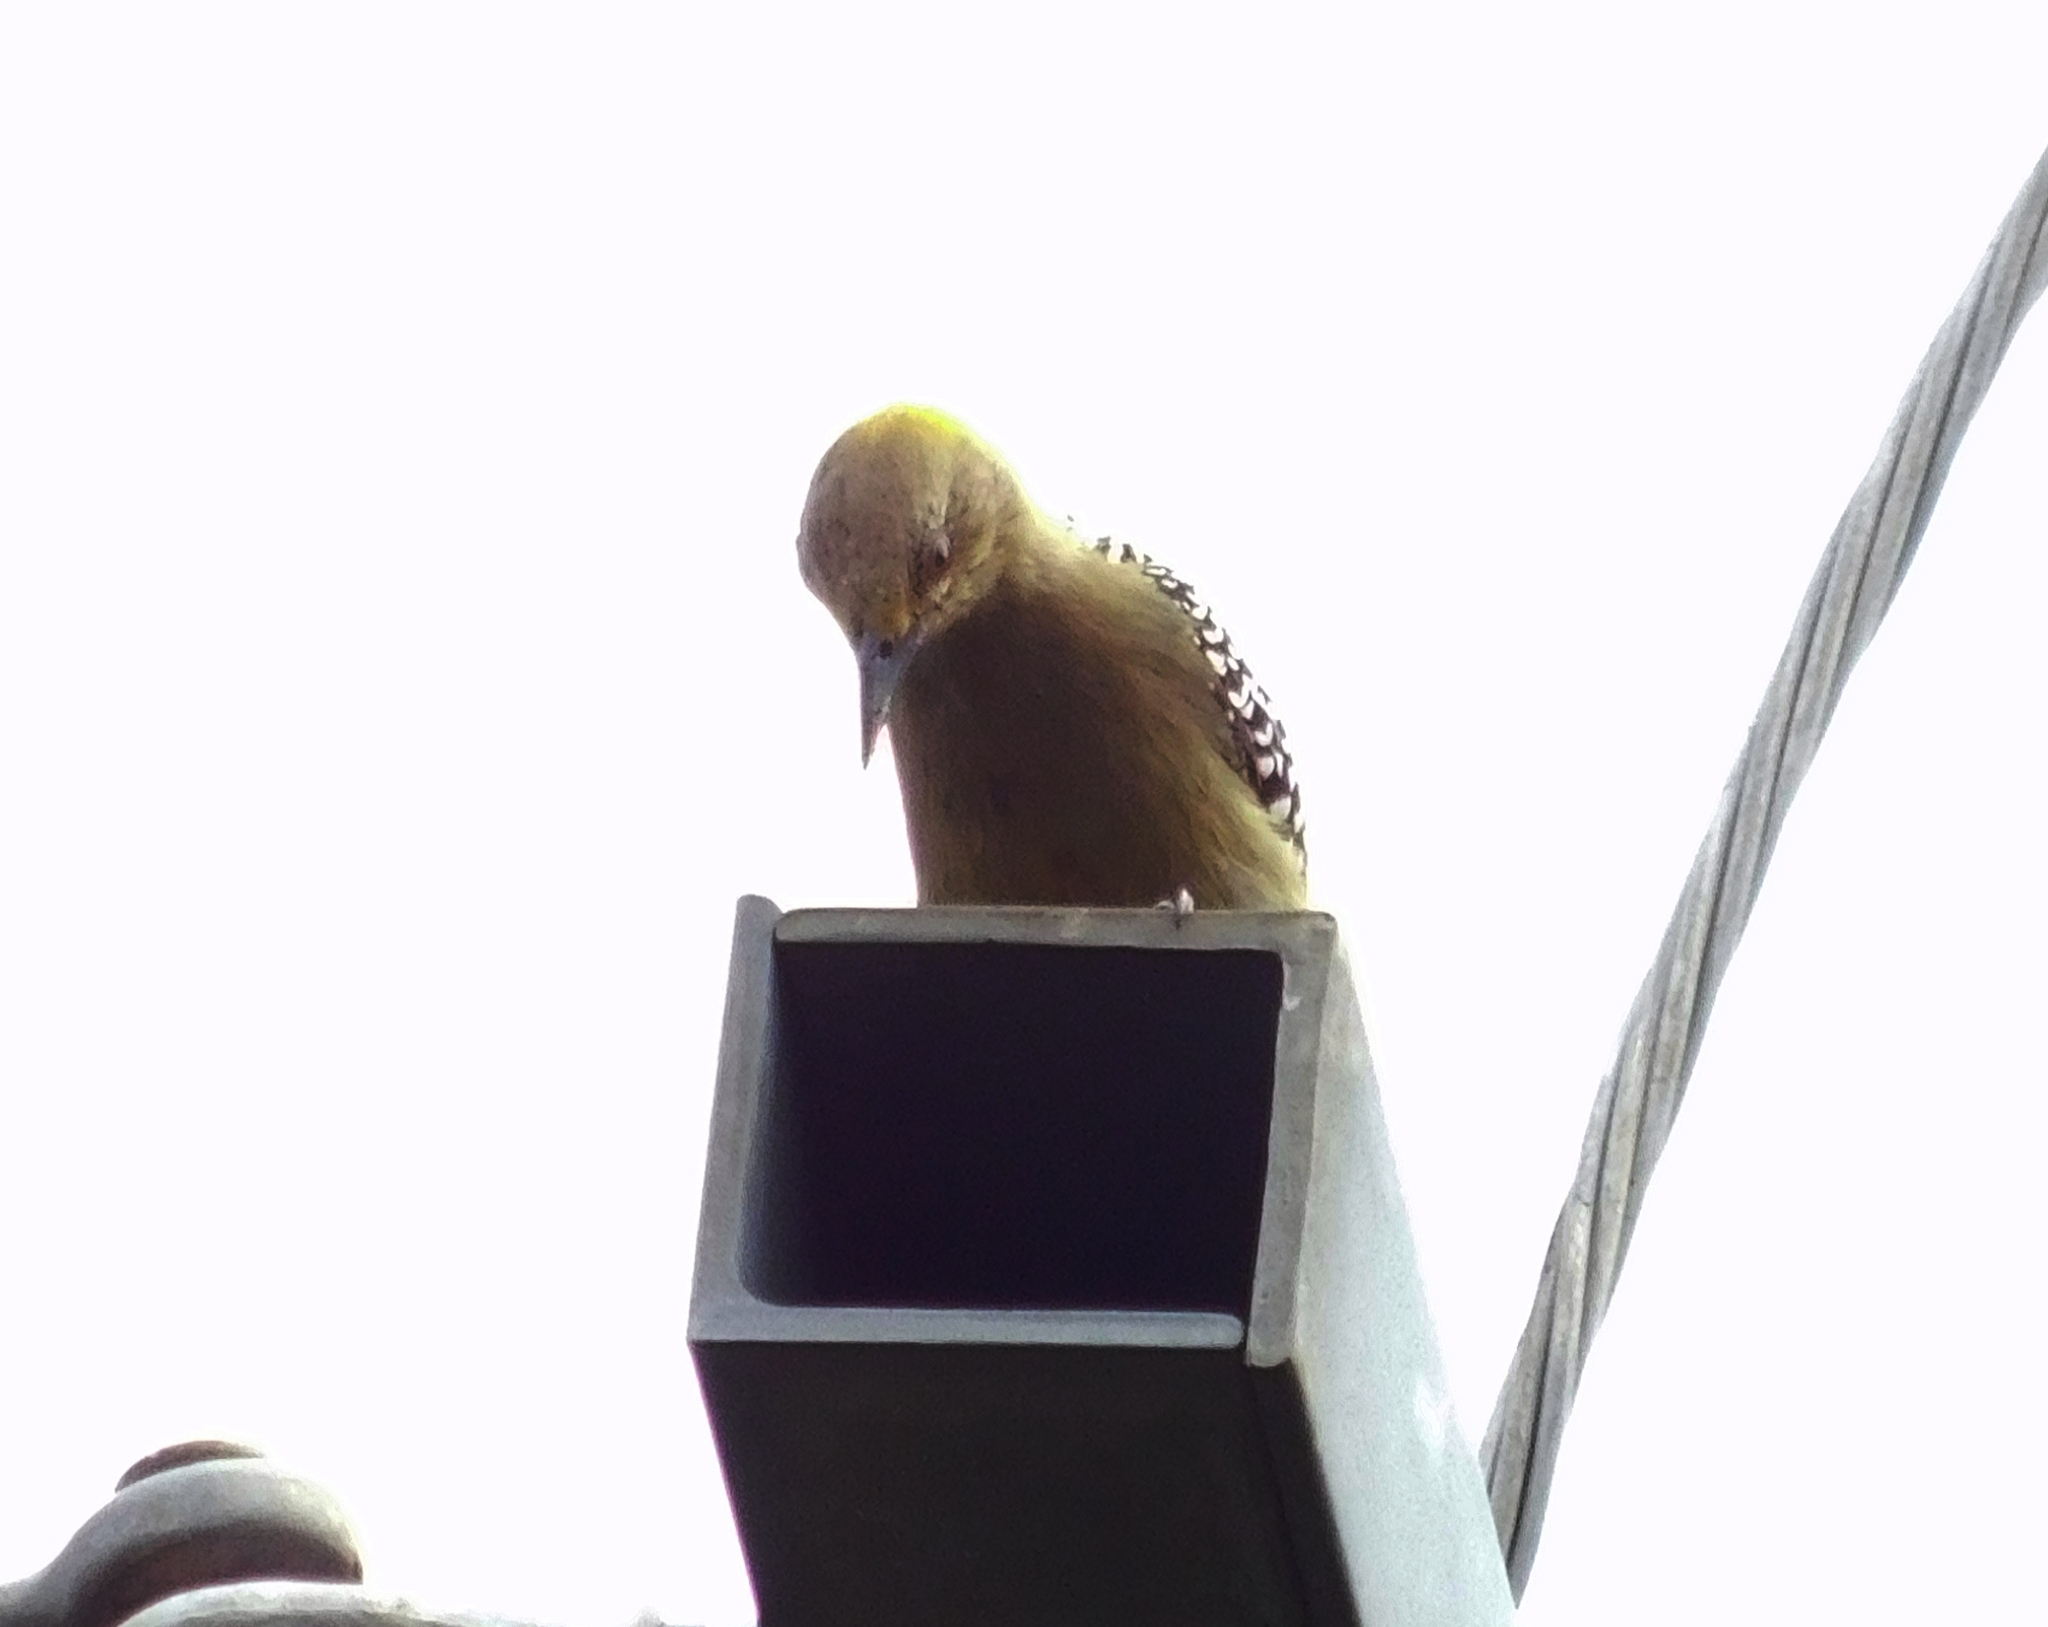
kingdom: Animalia
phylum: Chordata
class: Aves
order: Piciformes
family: Picidae
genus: Melanerpes
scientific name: Melanerpes hoffmannii
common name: Hoffmann's woodpecker
